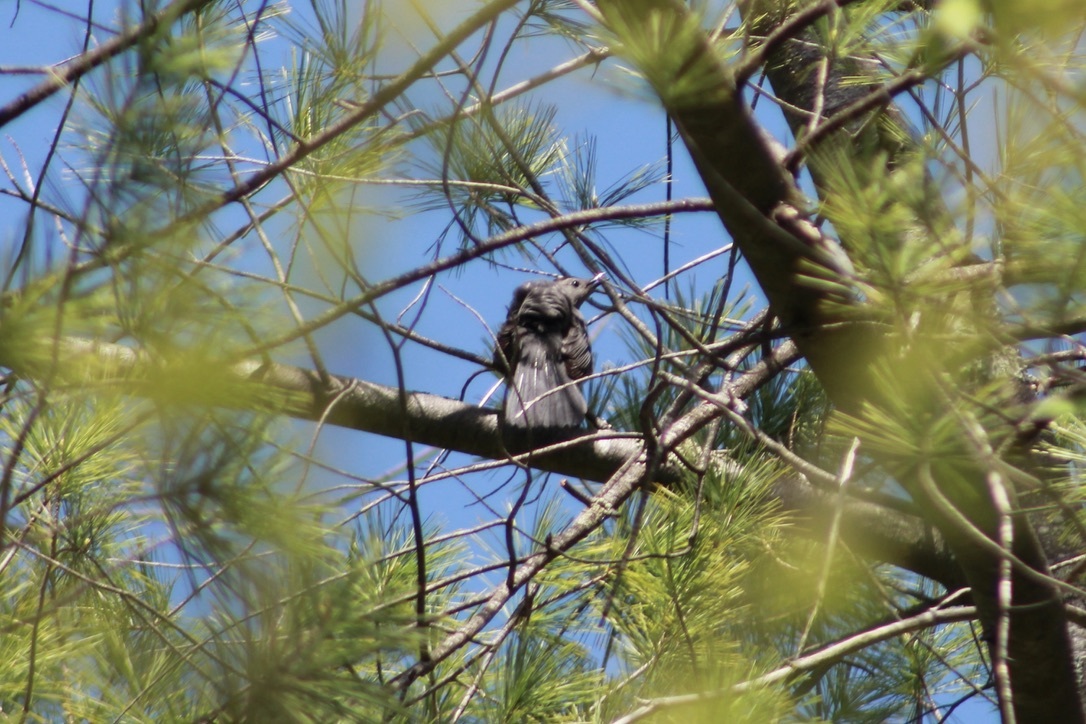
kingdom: Animalia
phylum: Chordata
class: Aves
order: Passeriformes
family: Mimidae
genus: Dumetella
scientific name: Dumetella carolinensis
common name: Gray catbird
